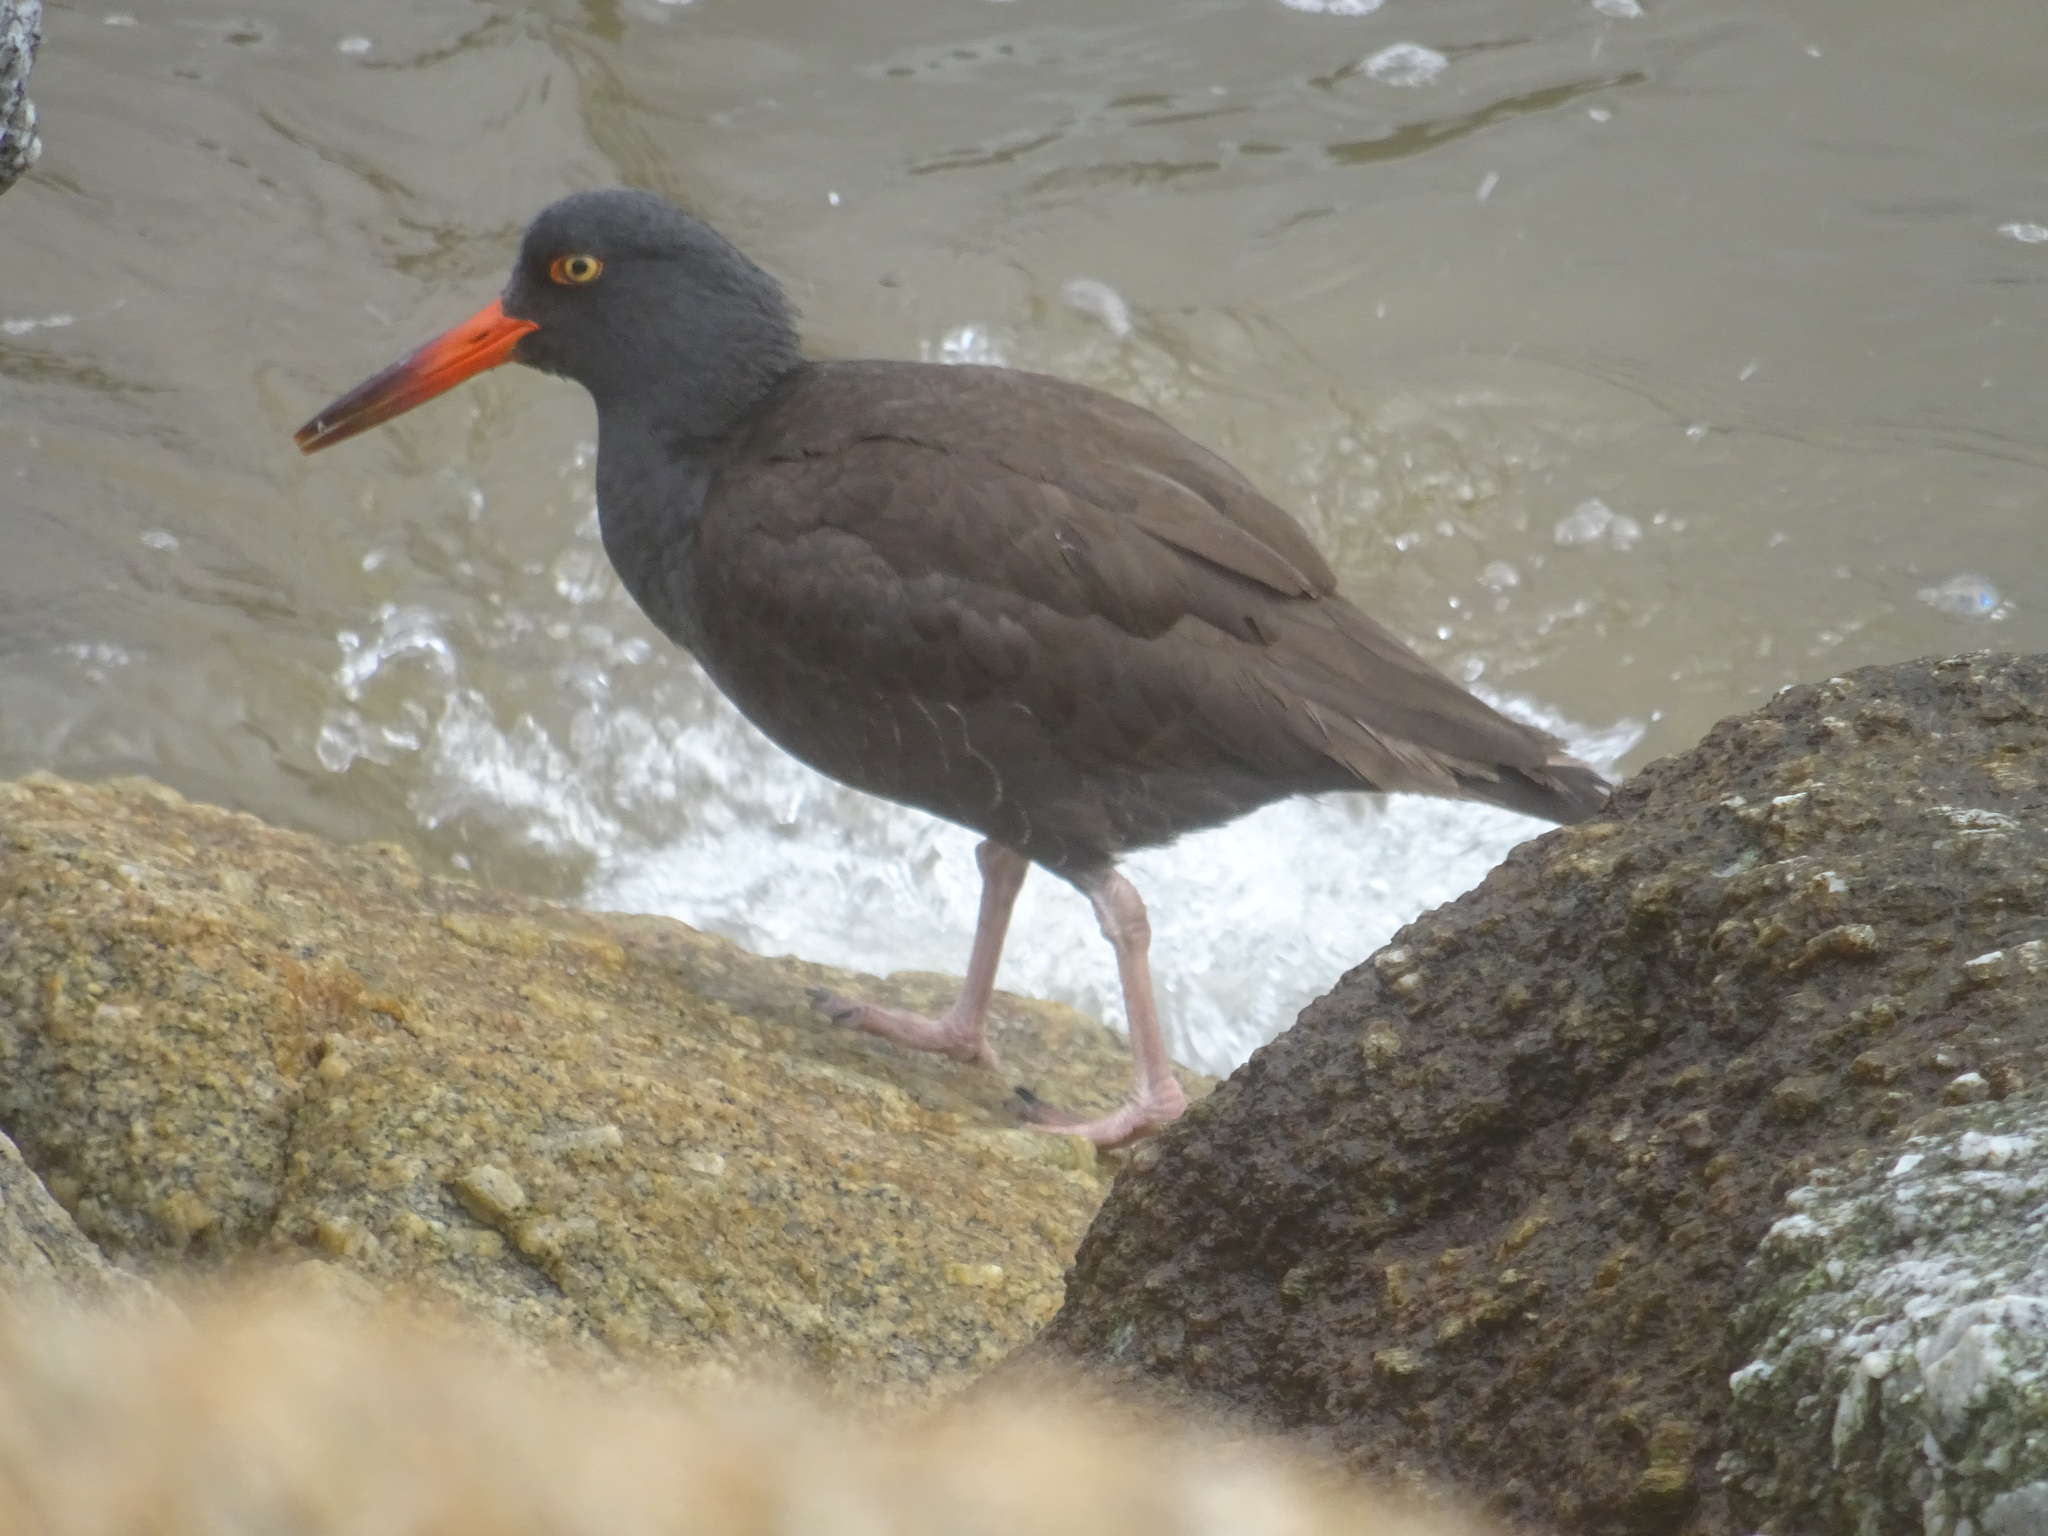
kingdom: Animalia
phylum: Chordata
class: Aves
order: Charadriiformes
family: Haematopodidae
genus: Haematopus
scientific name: Haematopus bachmani
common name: Black oystercatcher
